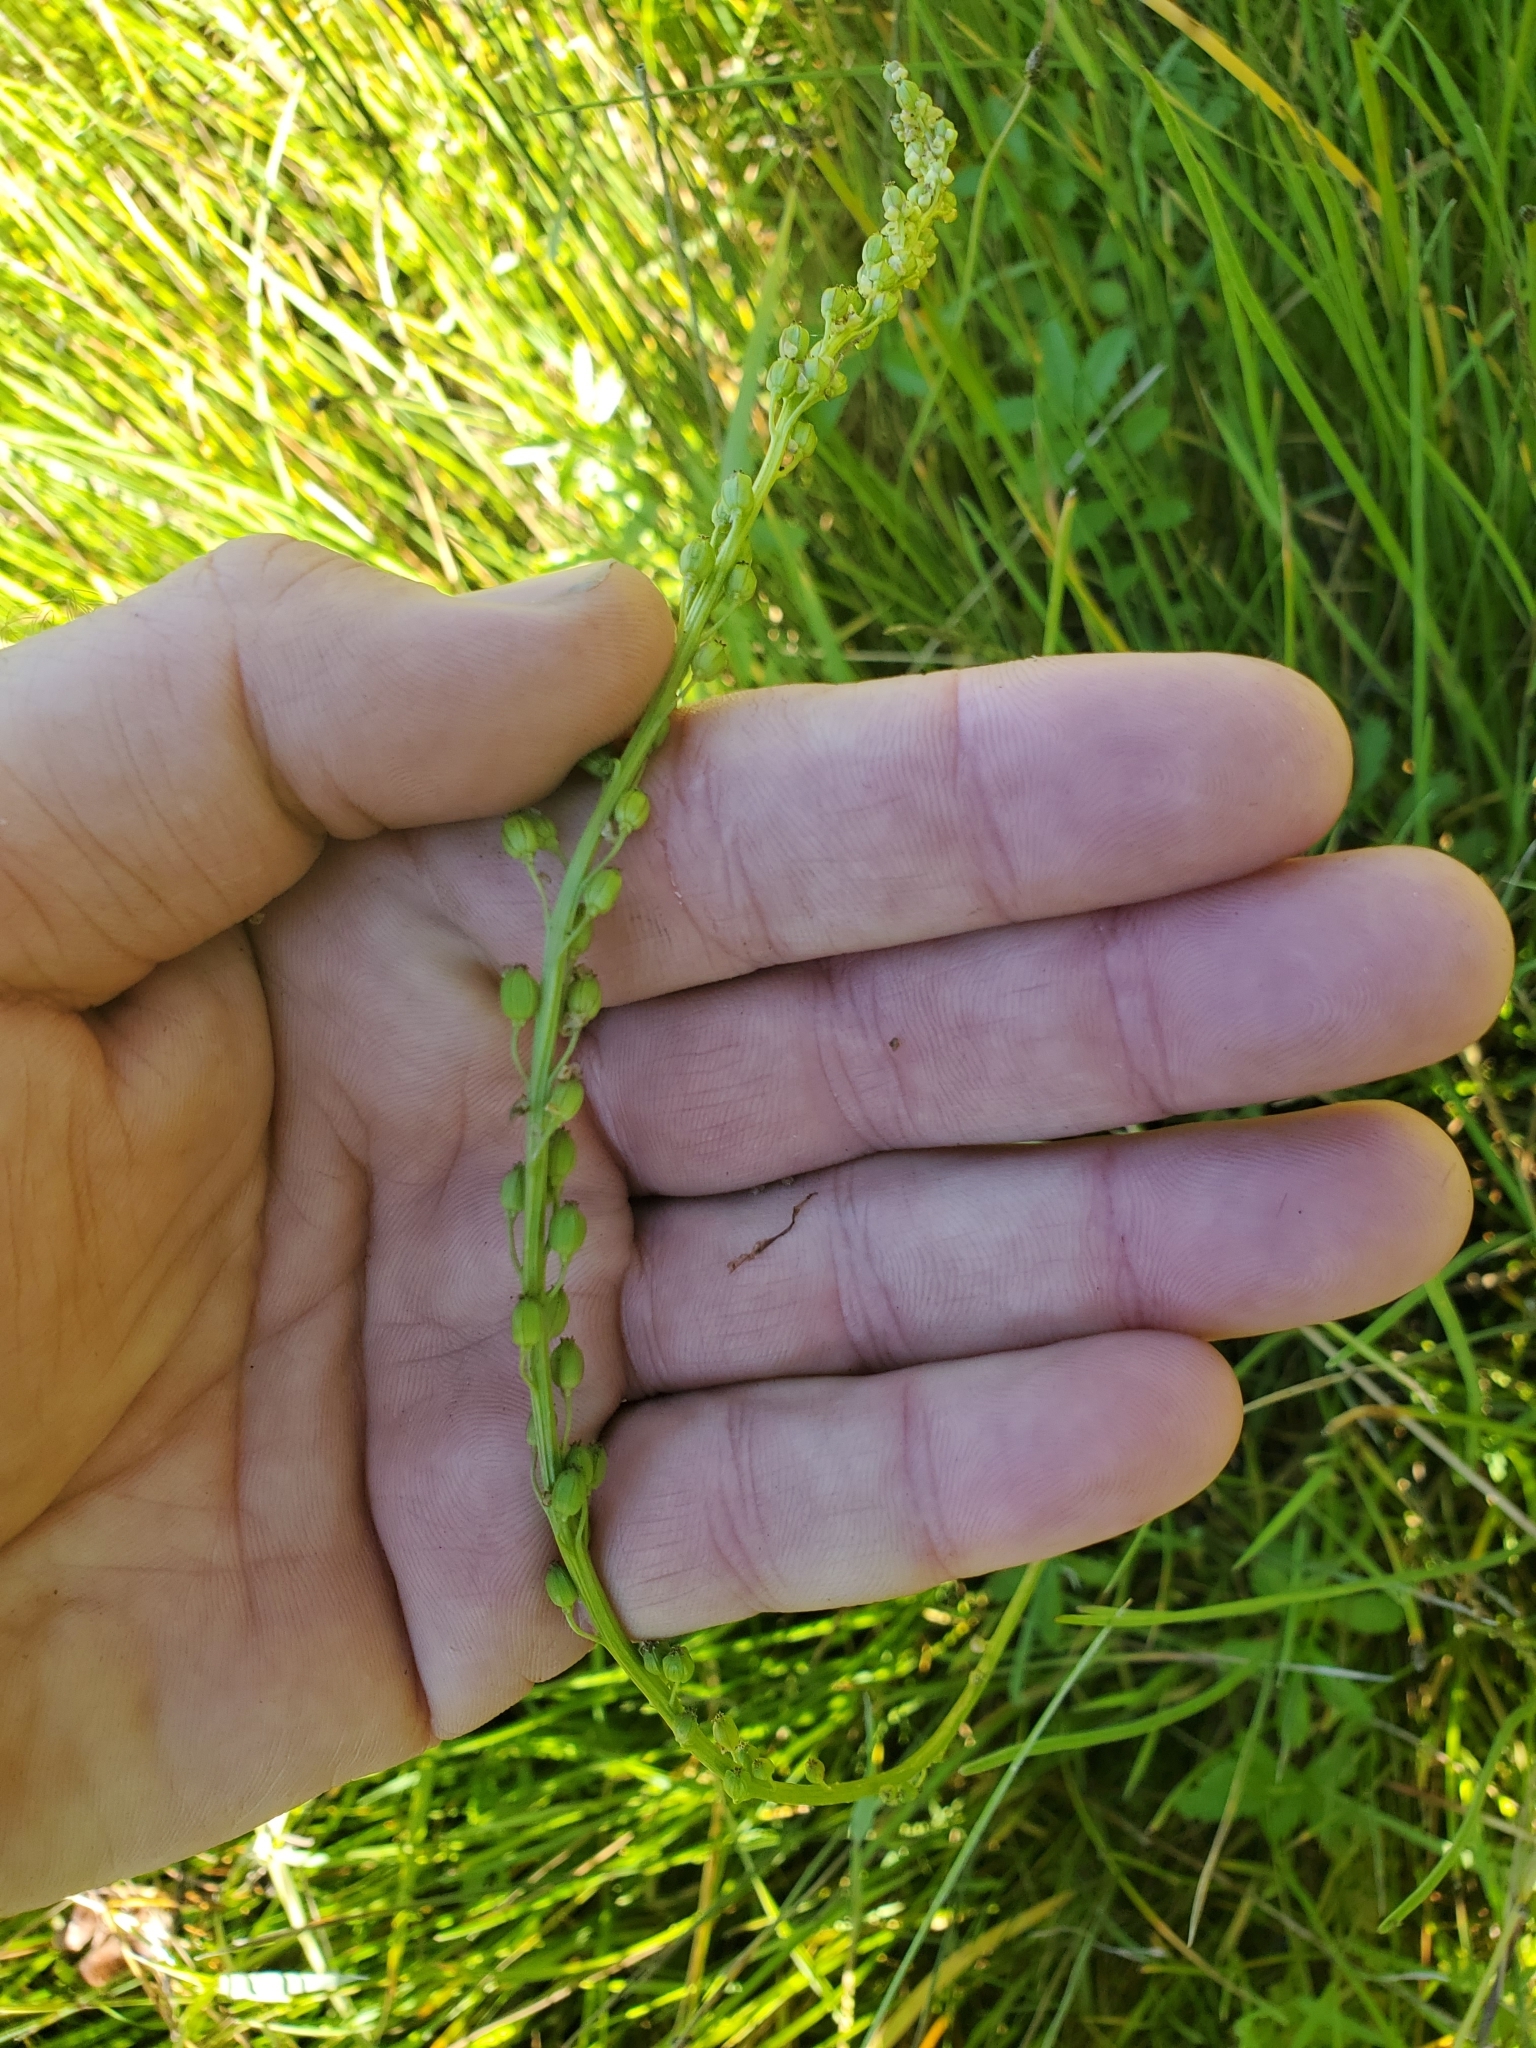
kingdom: Plantae
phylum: Tracheophyta
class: Liliopsida
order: Alismatales
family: Juncaginaceae
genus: Triglochin
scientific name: Triglochin maritima
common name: Sea arrowgrass
